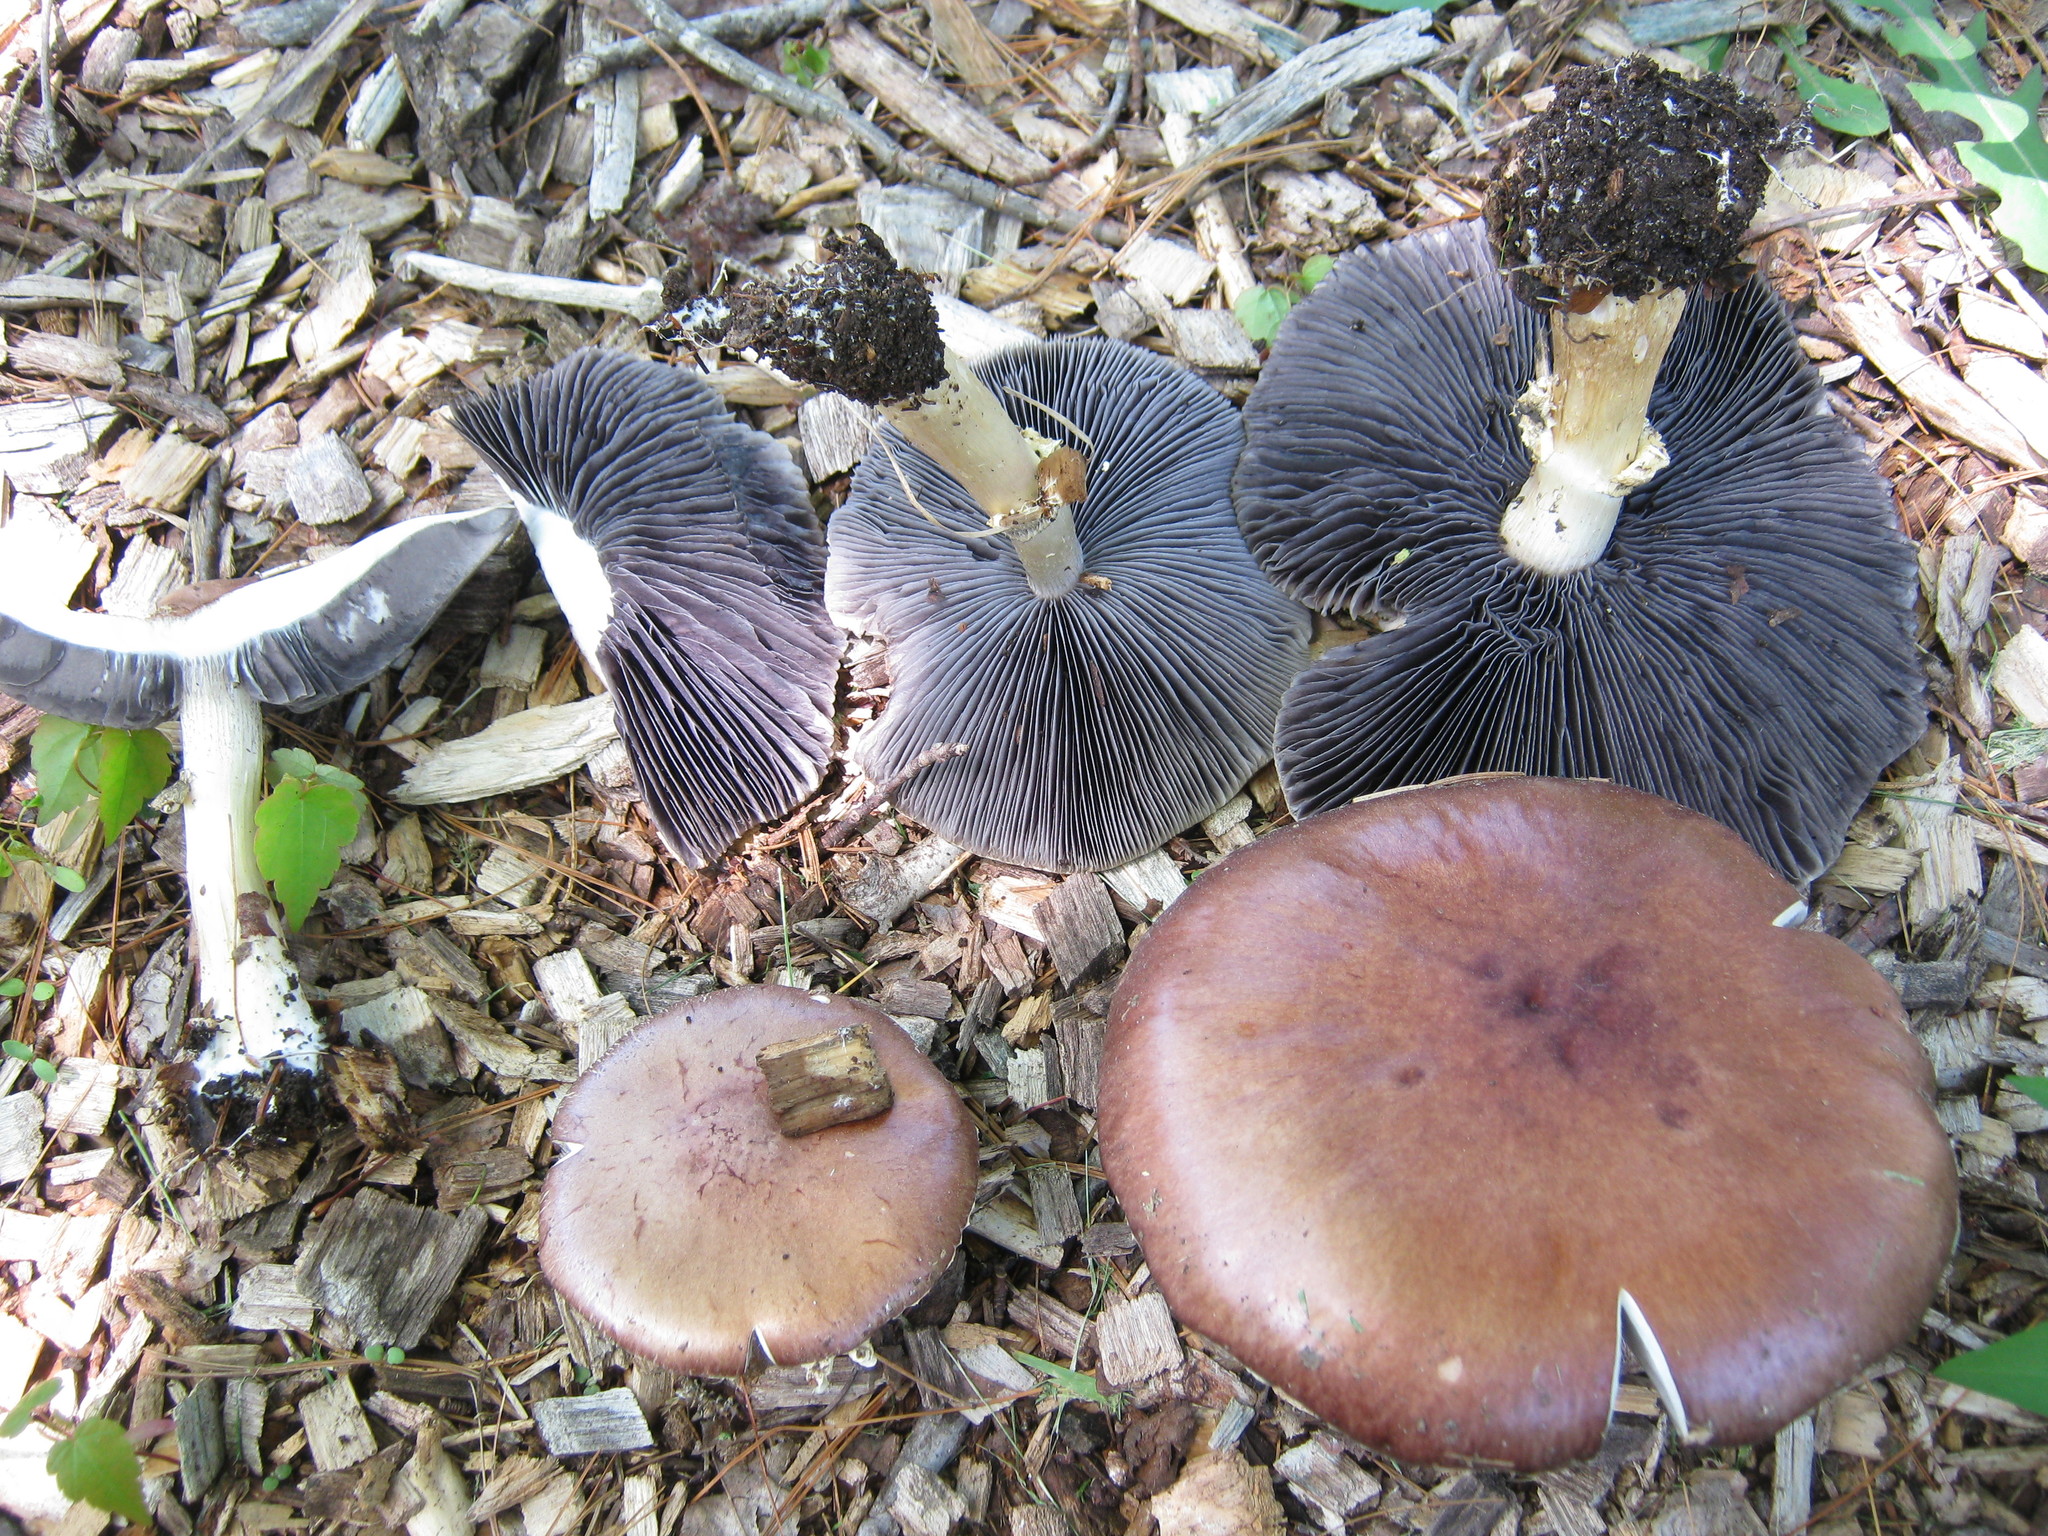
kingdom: Fungi
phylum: Basidiomycota
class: Agaricomycetes
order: Agaricales
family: Strophariaceae
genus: Stropharia
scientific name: Stropharia rugosoannulata
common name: Wine roundhead
